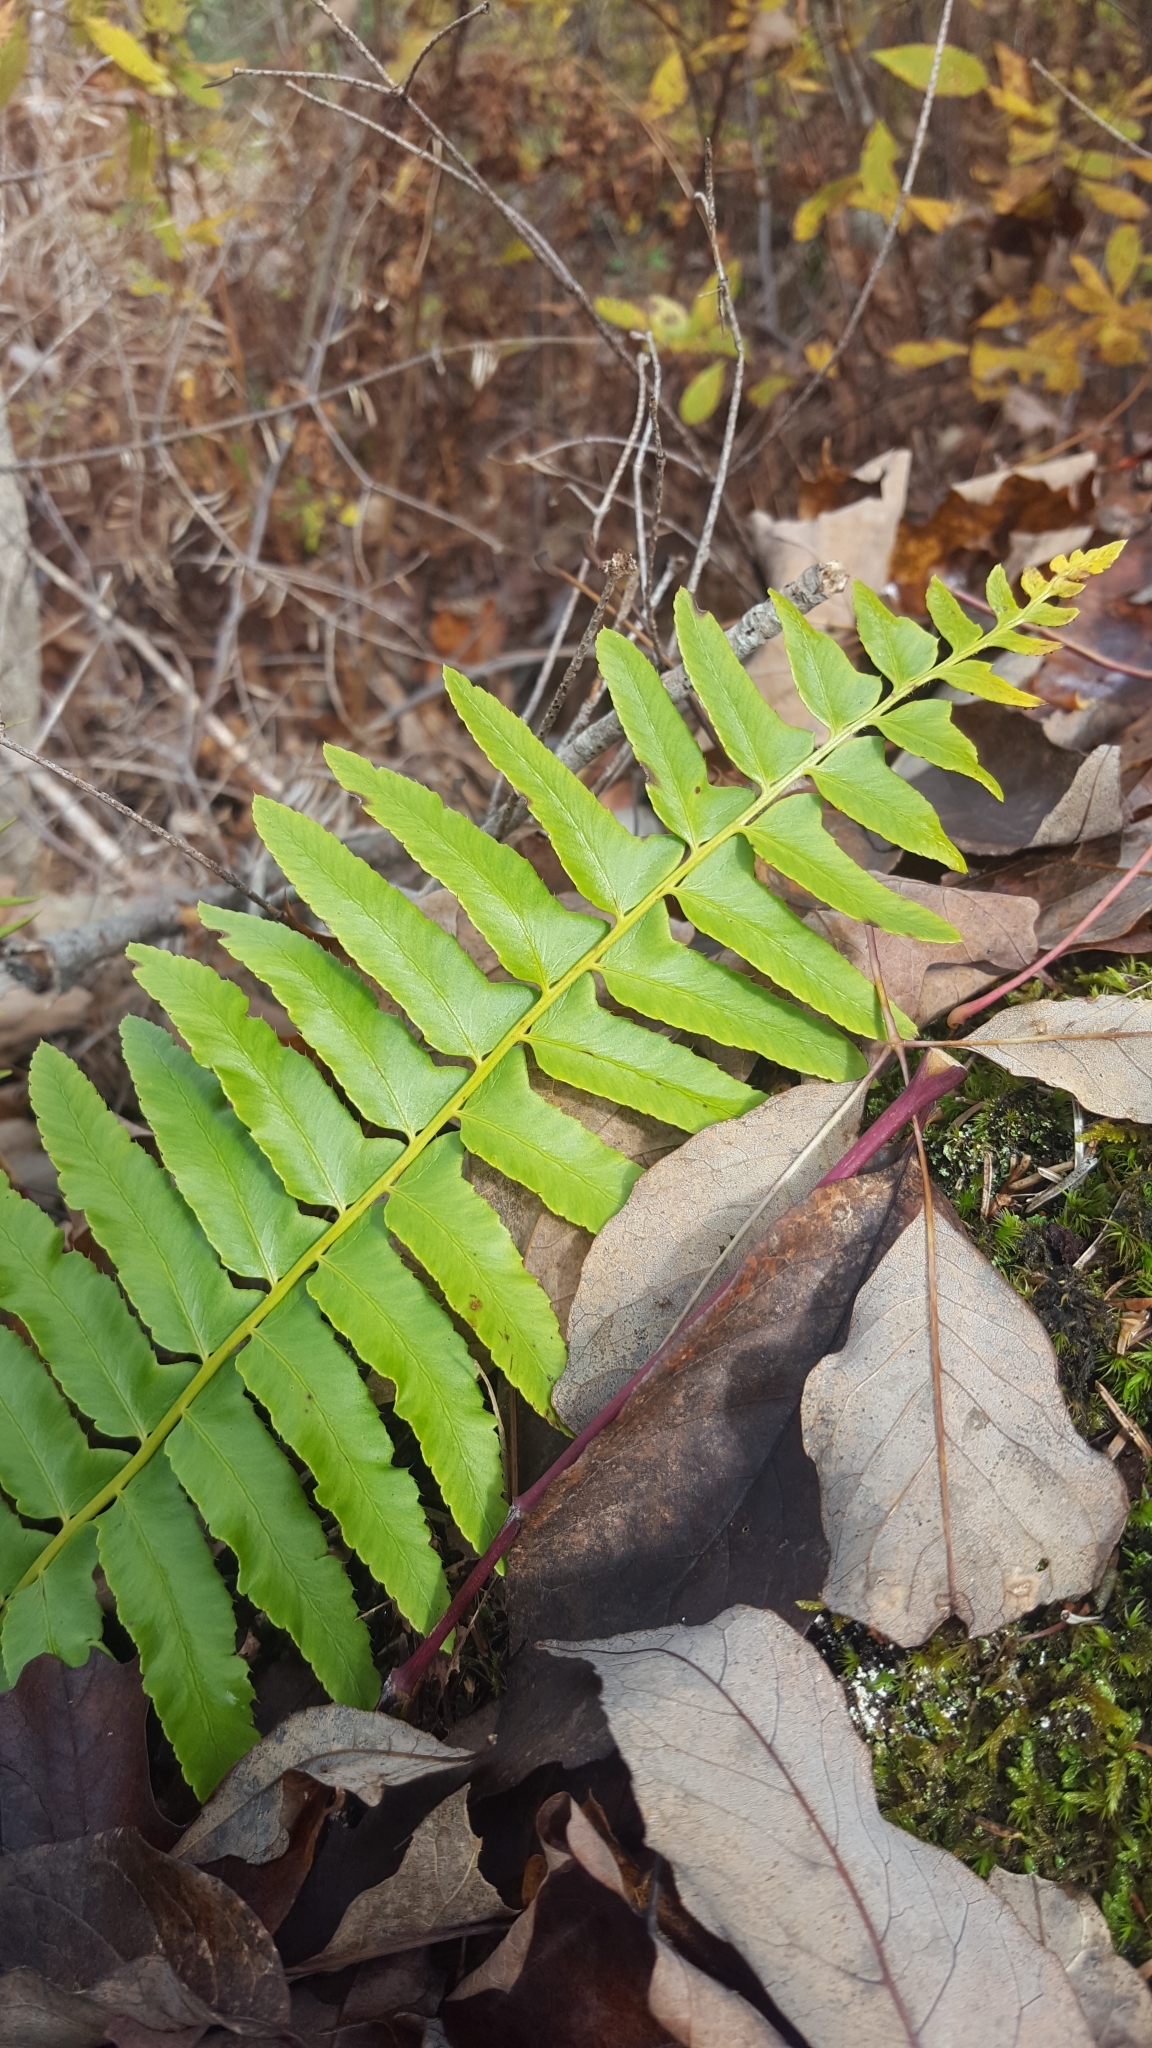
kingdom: Plantae
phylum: Tracheophyta
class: Polypodiopsida
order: Polypodiales
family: Dryopteridaceae
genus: Polystichum
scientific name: Polystichum acrostichoides
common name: Christmas fern
